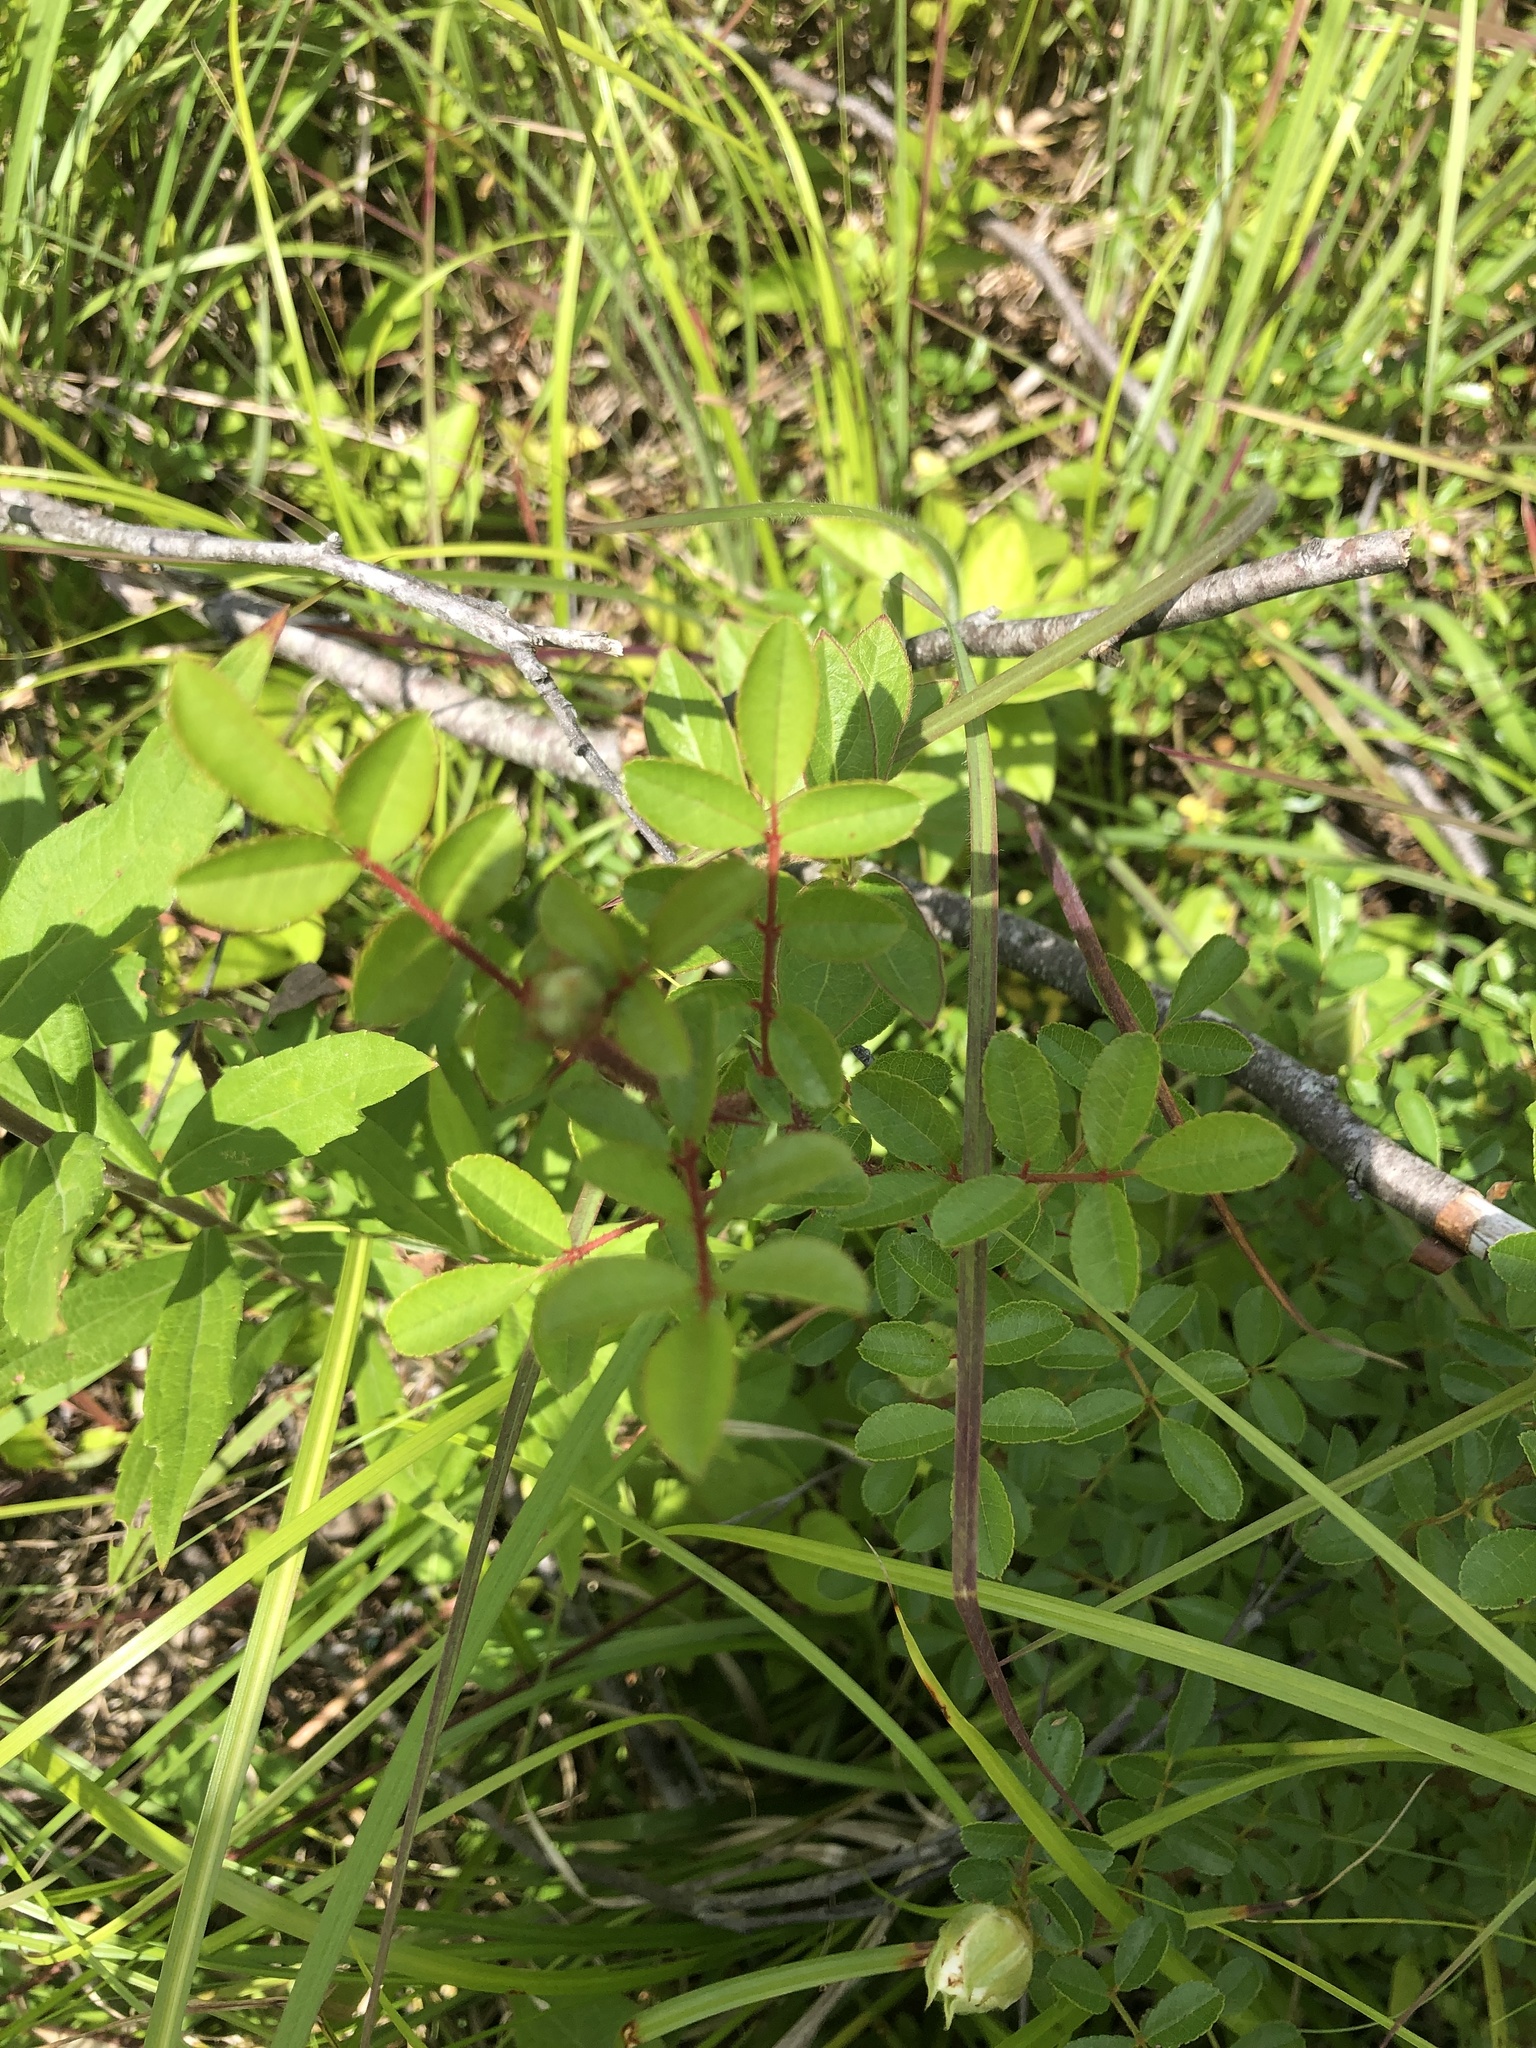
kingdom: Plantae
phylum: Tracheophyta
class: Magnoliopsida
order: Rosales
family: Rosaceae
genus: Rosa
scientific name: Rosa bracteata
